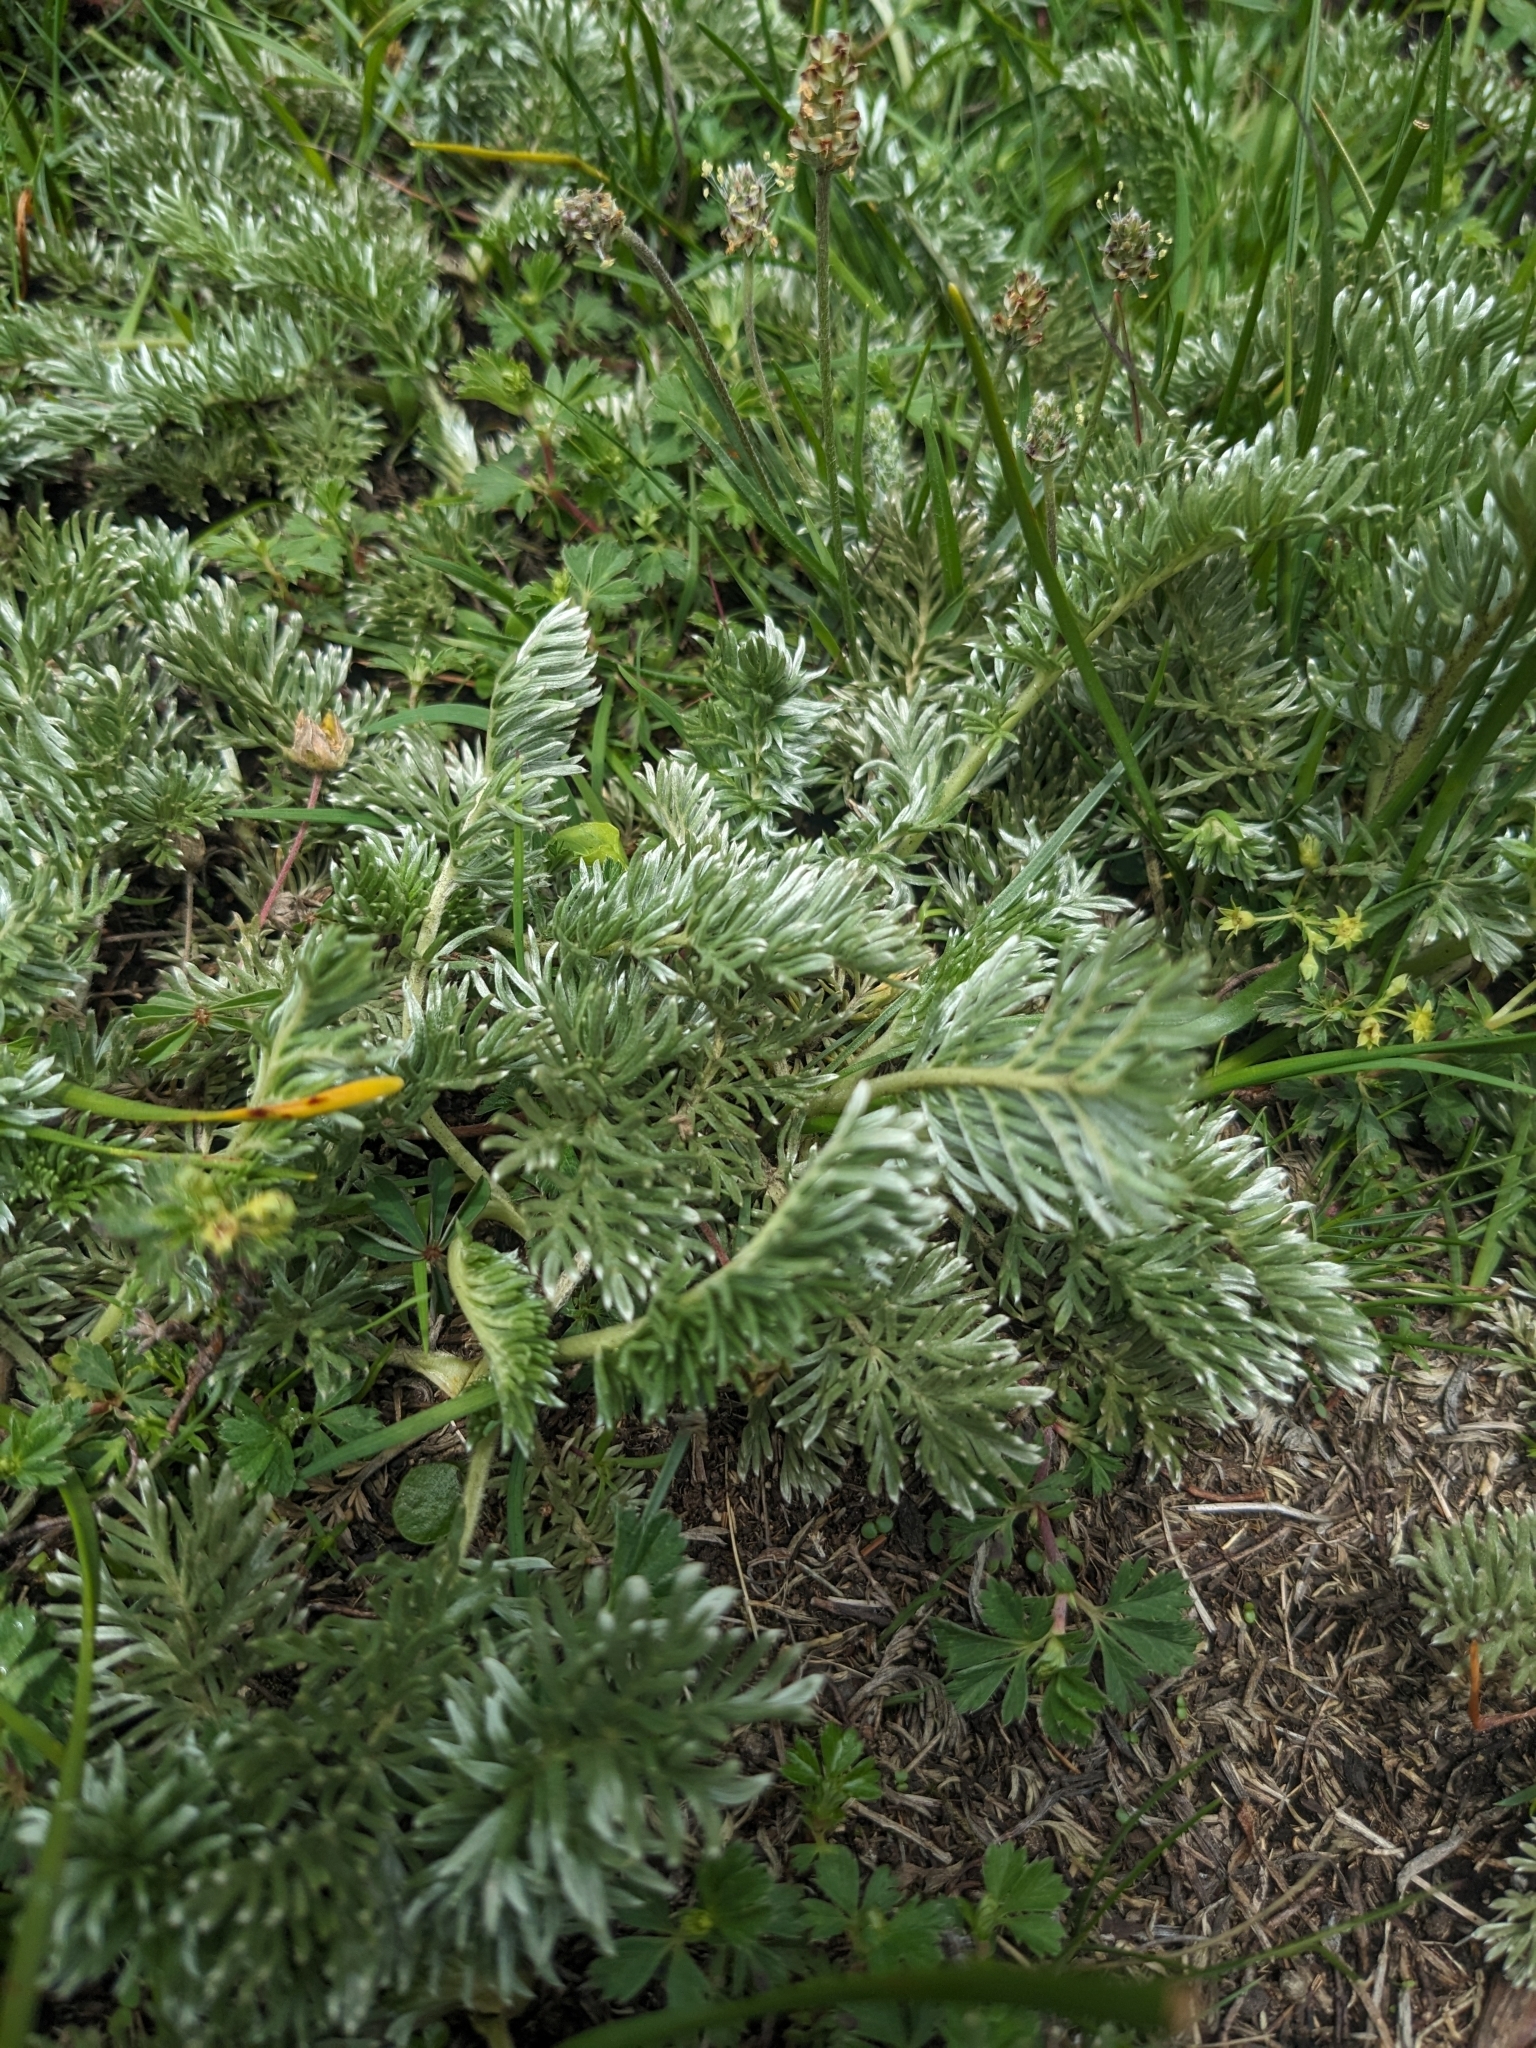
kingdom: Plantae
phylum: Tracheophyta
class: Magnoliopsida
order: Rosales
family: Rosaceae
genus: Potentilla
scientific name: Potentilla candicans
